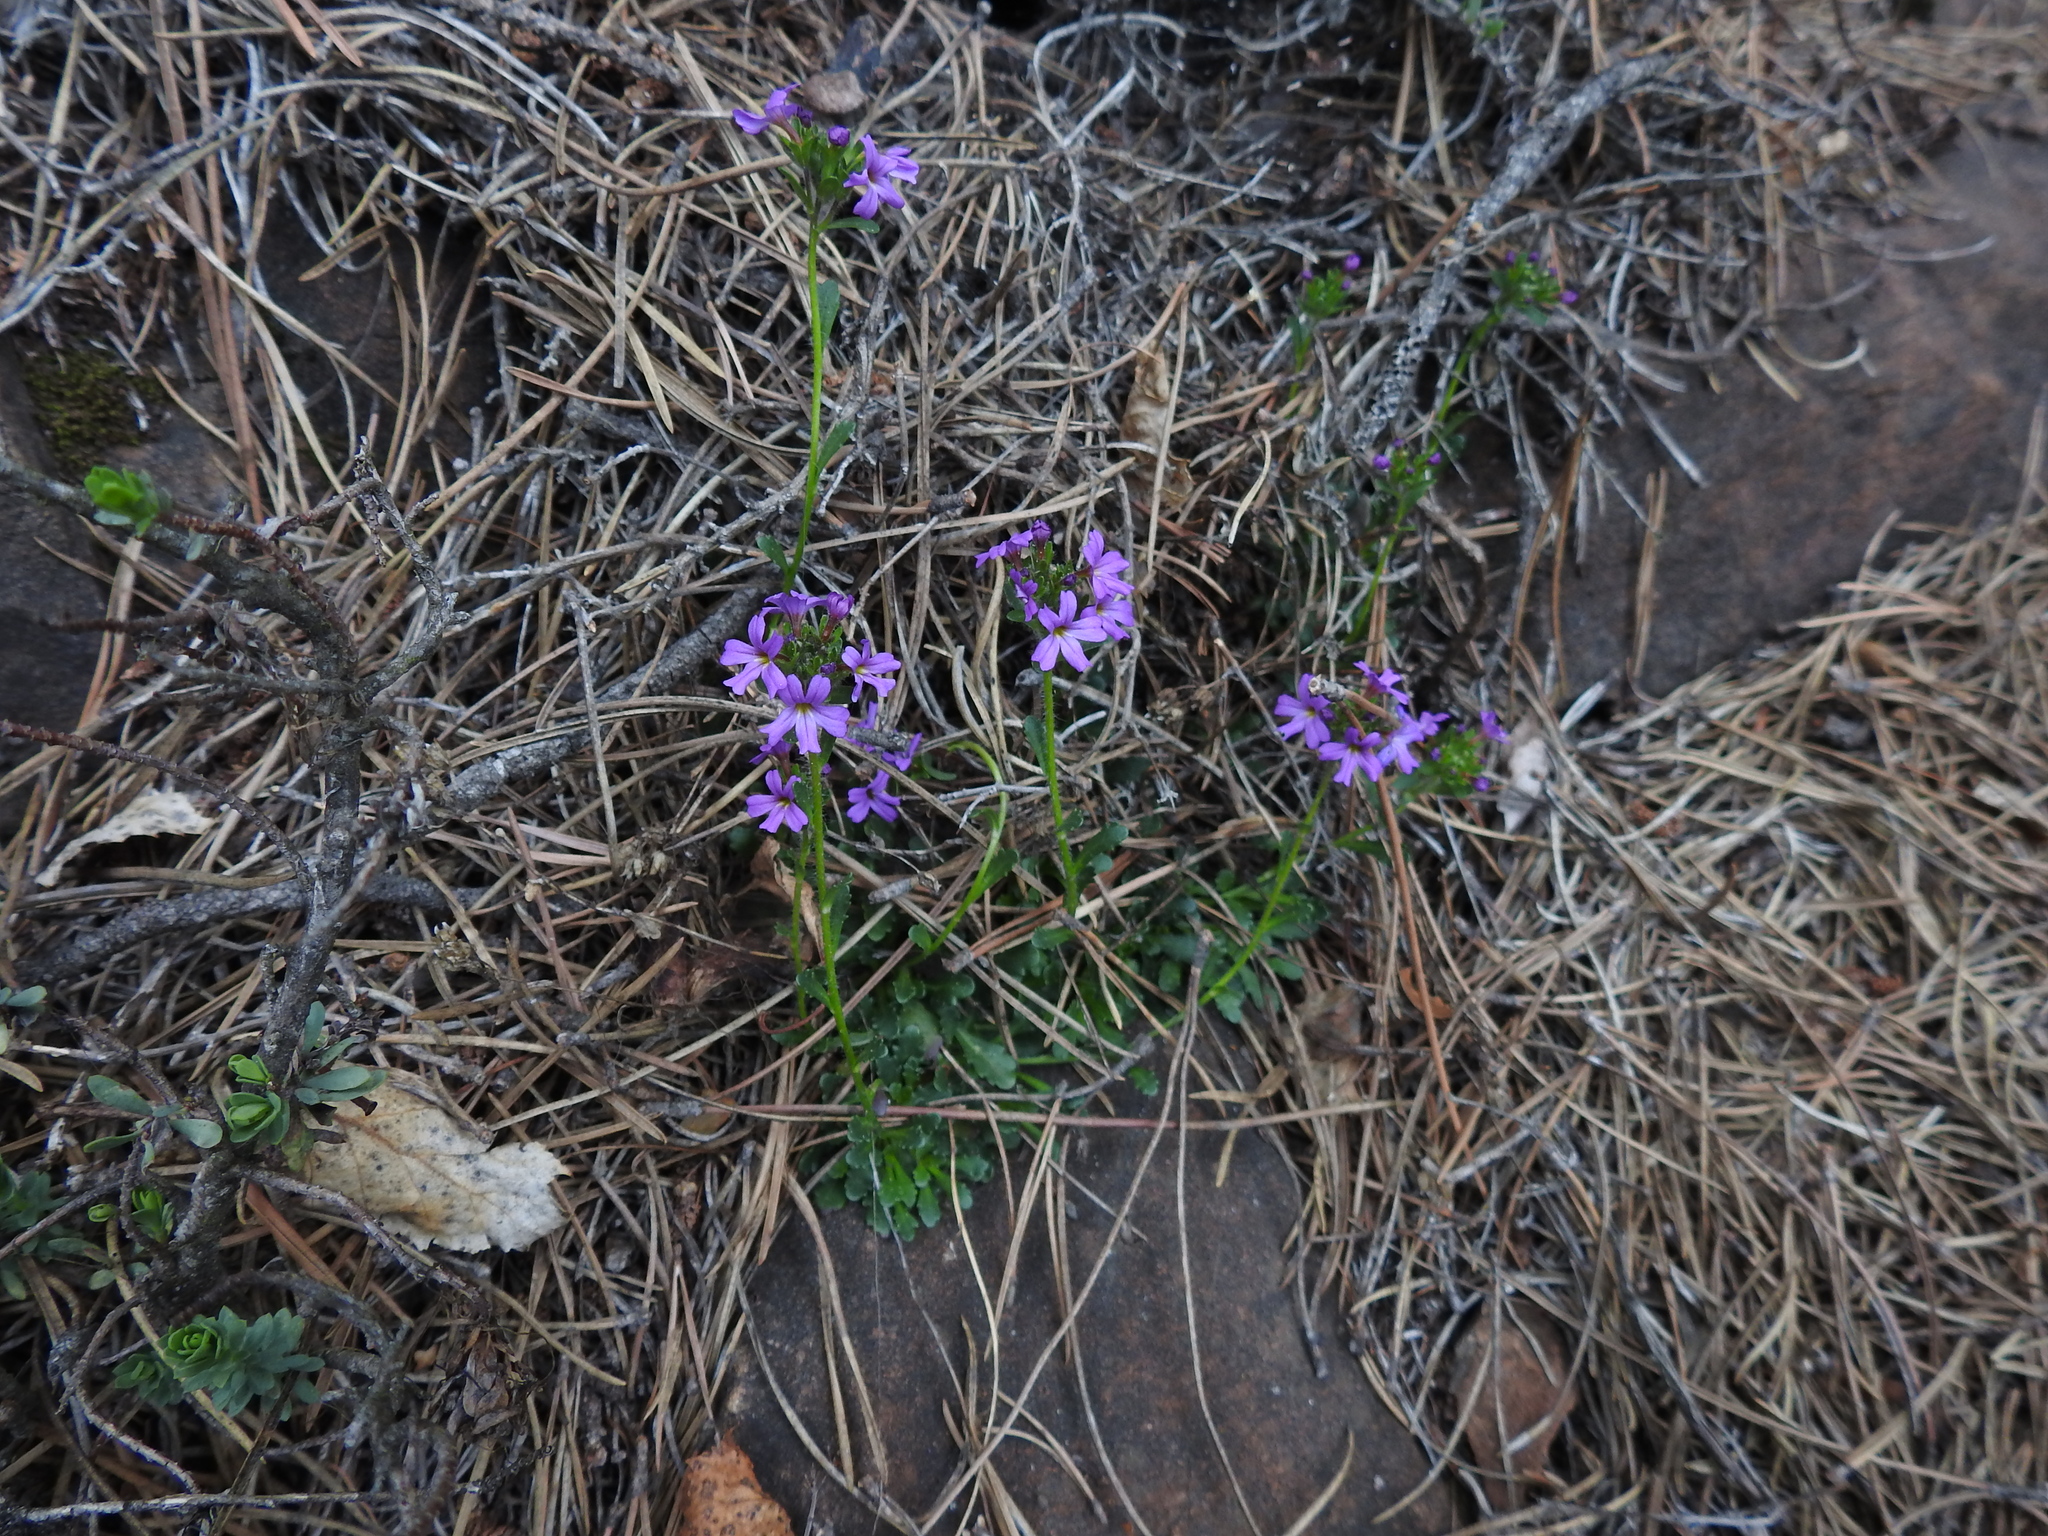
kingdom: Plantae
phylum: Tracheophyta
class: Magnoliopsida
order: Lamiales
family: Plantaginaceae
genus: Erinus
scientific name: Erinus alpinus
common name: Fairy foxglove
